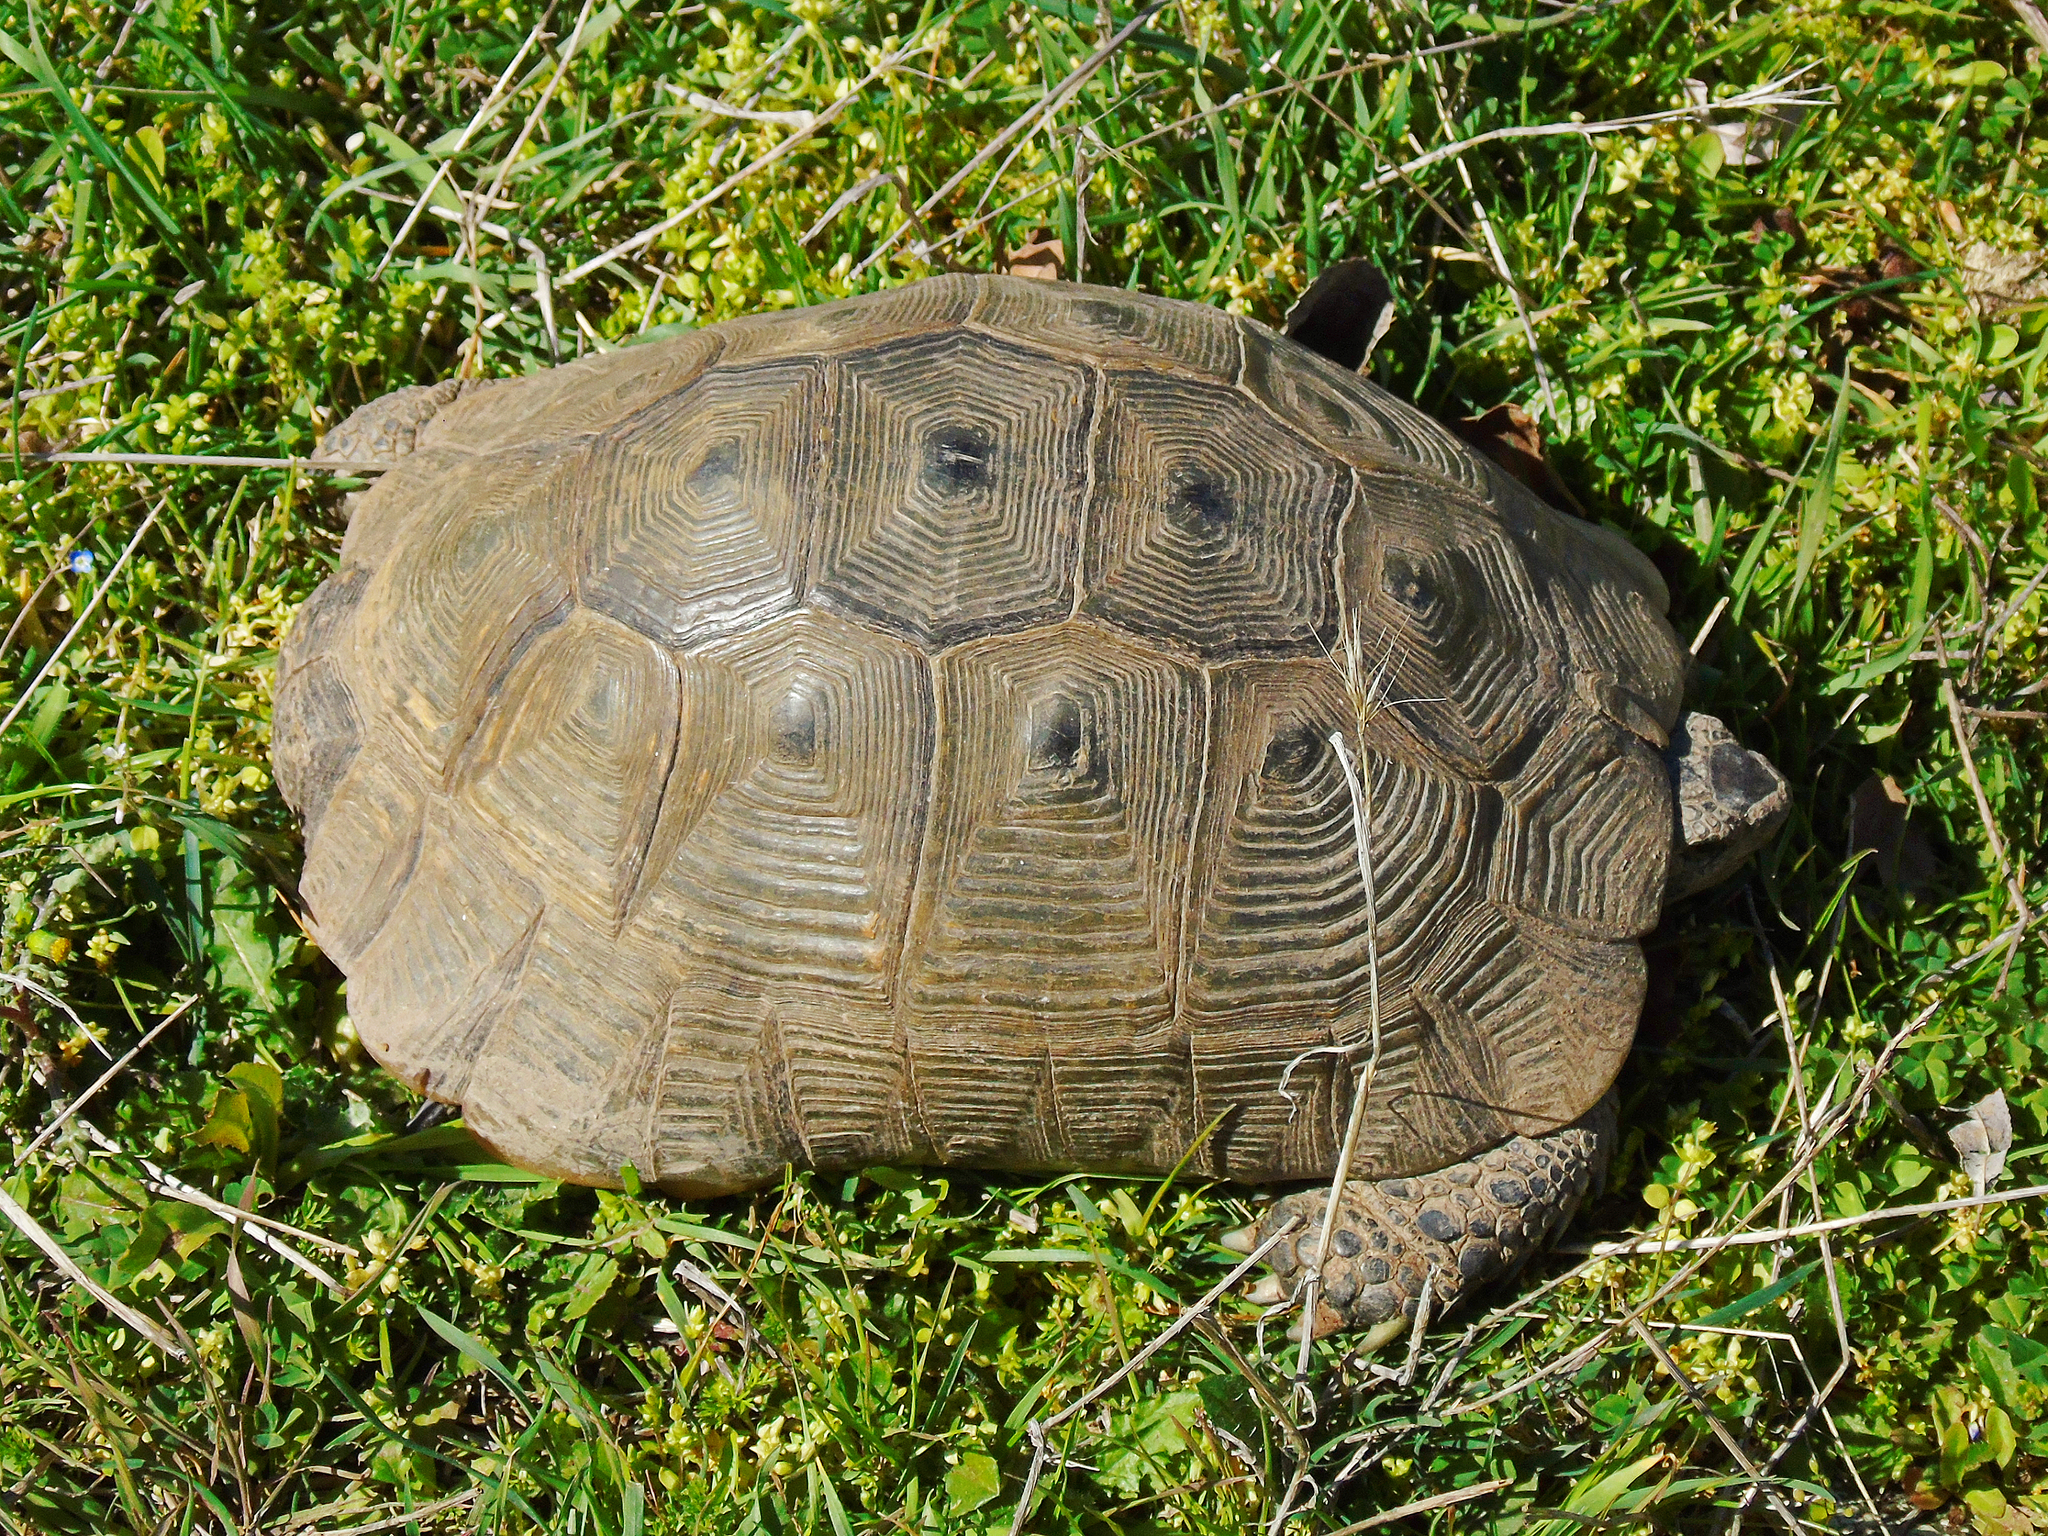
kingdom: Animalia
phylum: Chordata
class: Testudines
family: Testudinidae
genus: Testudo
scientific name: Testudo graeca
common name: Common tortoise
